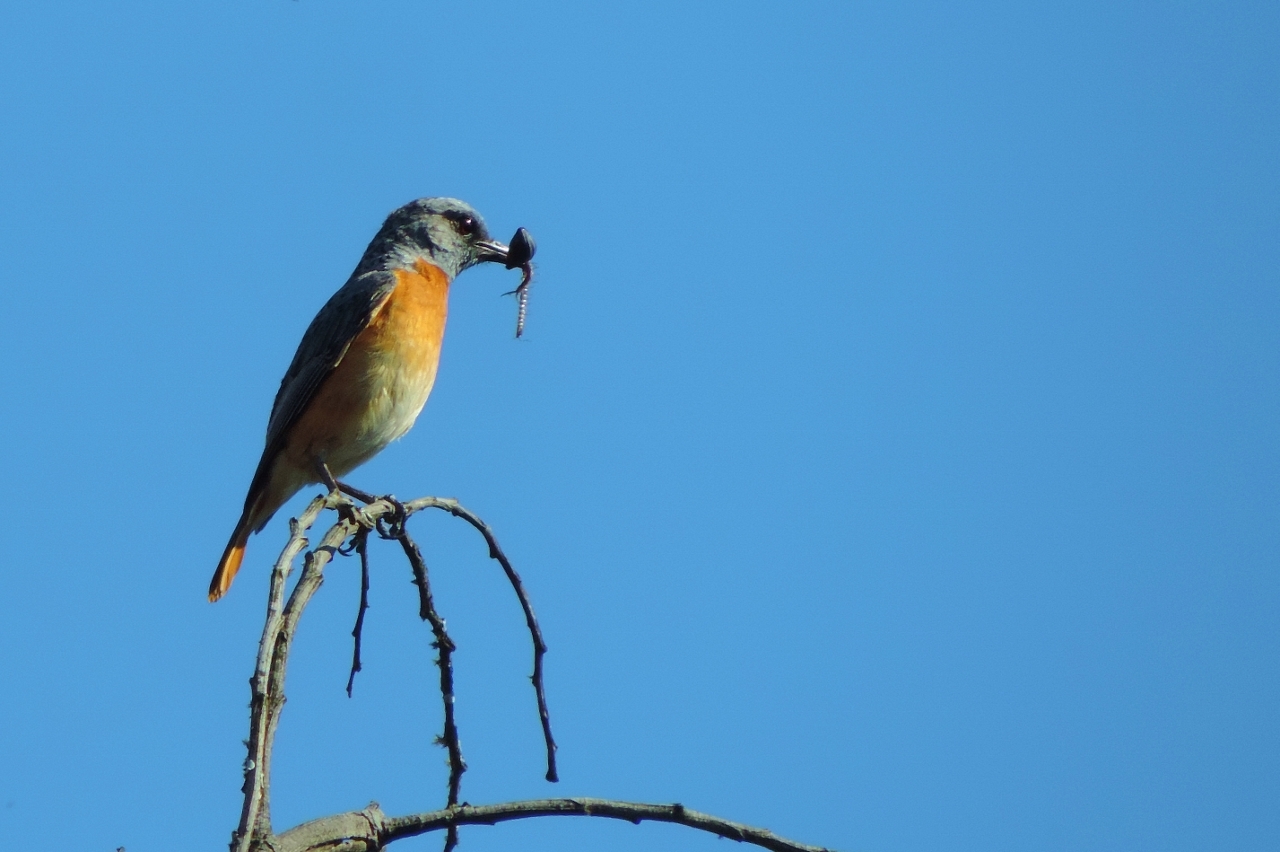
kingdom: Animalia
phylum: Chordata
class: Aves
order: Passeriformes
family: Muscicapidae
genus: Monticola
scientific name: Monticola angolensis
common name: Miombo rock thrush
